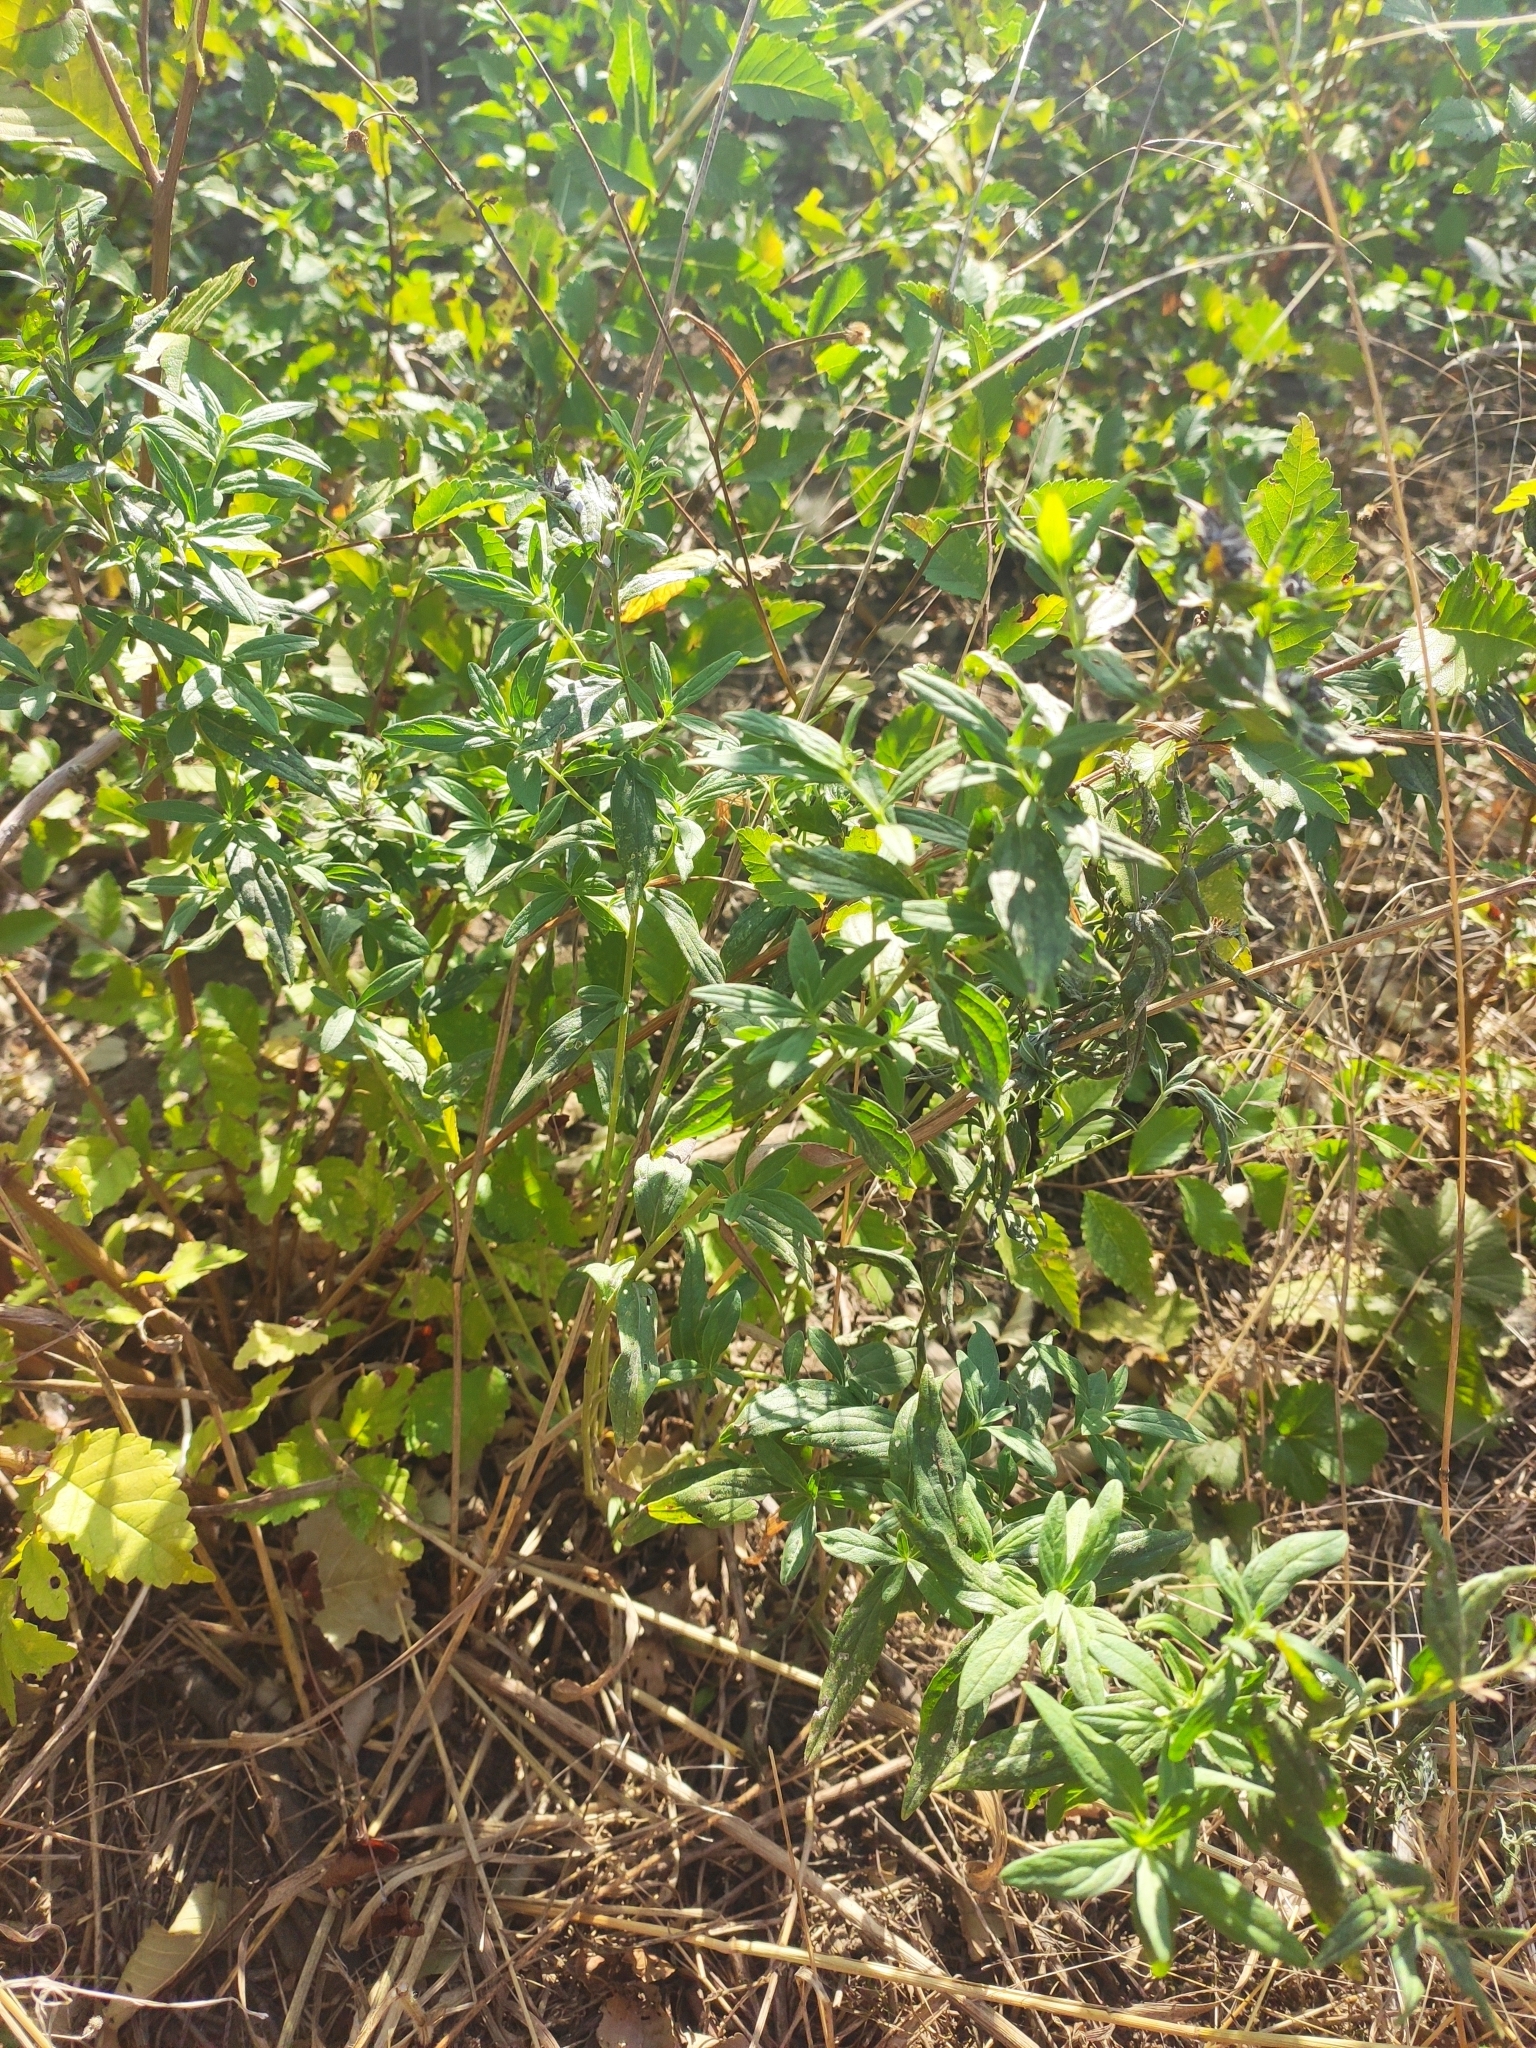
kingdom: Plantae
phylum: Tracheophyta
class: Magnoliopsida
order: Boraginales
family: Boraginaceae
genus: Lithospermum
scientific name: Lithospermum officinale
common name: Common gromwell
